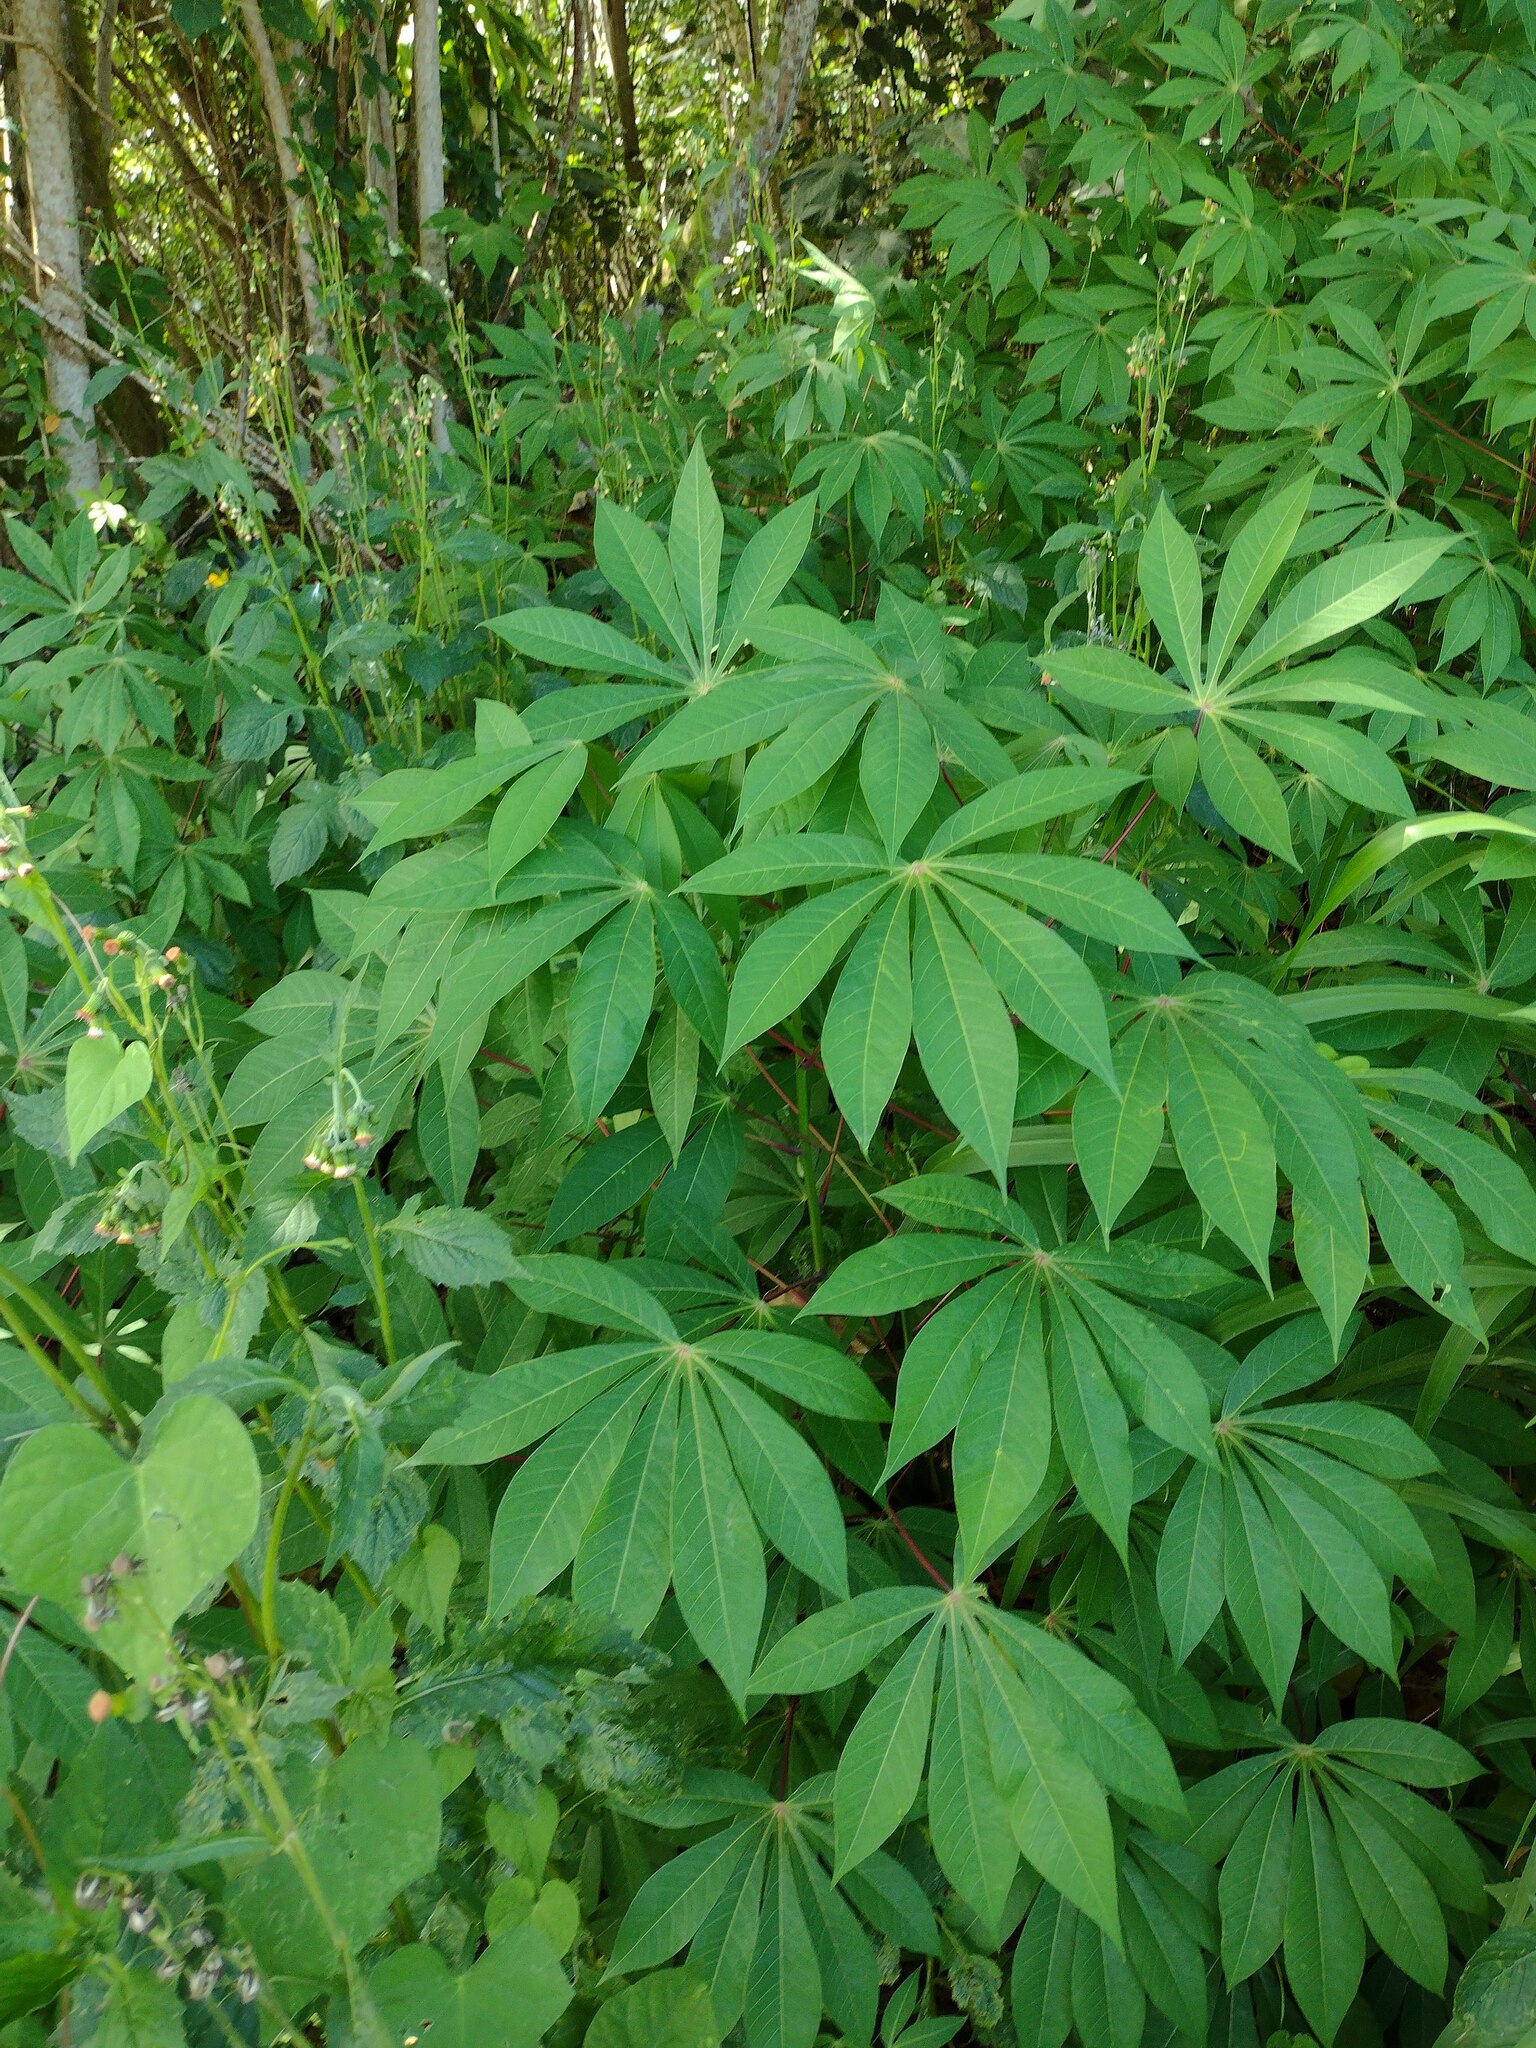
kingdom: Plantae
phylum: Tracheophyta
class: Magnoliopsida
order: Malpighiales
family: Euphorbiaceae
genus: Manihot
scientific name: Manihot esculenta
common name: Cassava
